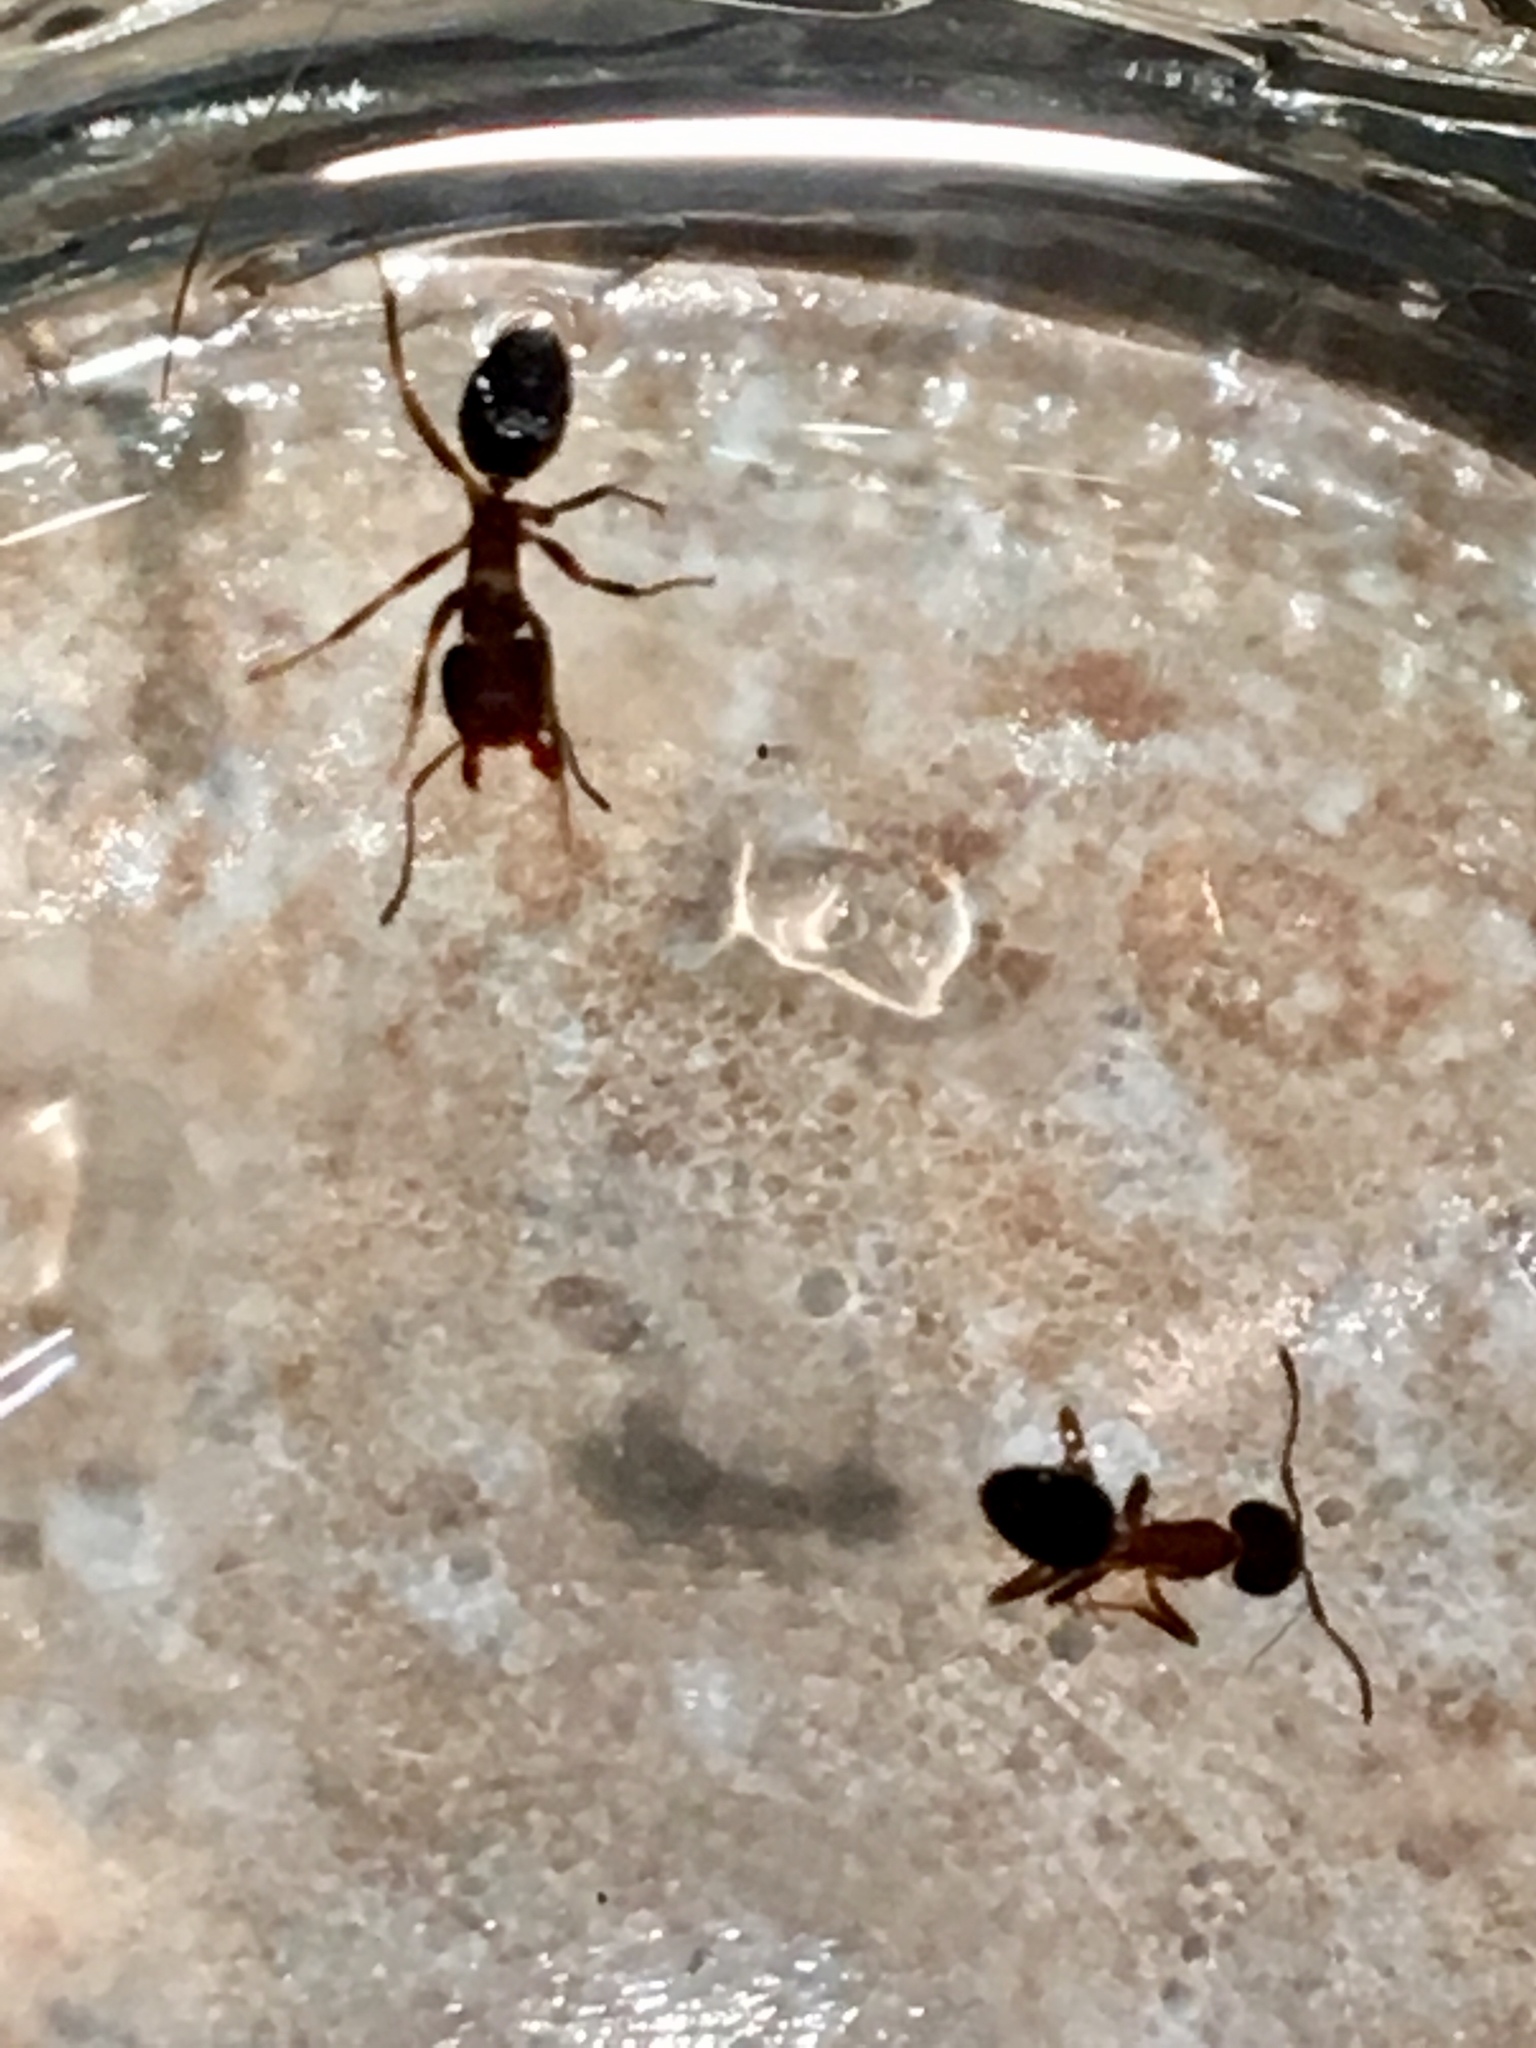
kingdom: Animalia
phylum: Arthropoda
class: Insecta
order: Hymenoptera
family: Formicidae
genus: Liometopum
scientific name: Liometopum occidentale
